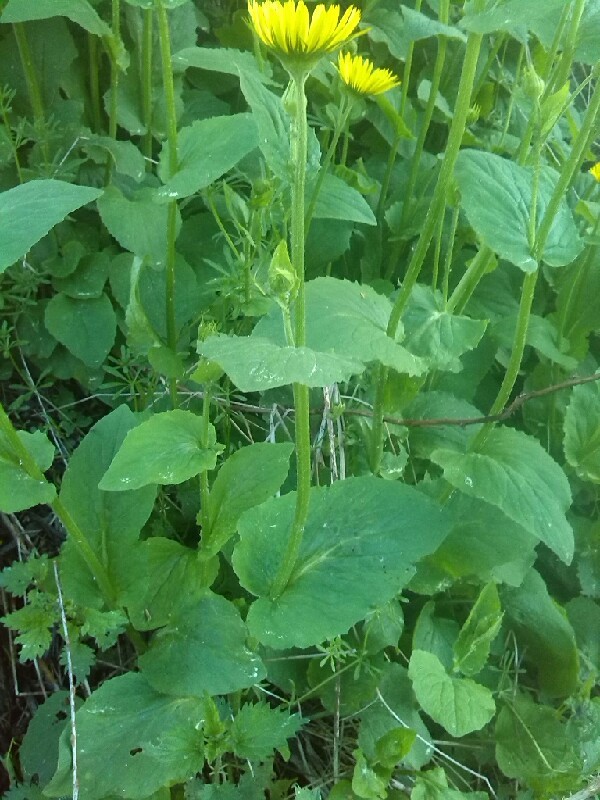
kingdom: Plantae
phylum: Tracheophyta
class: Magnoliopsida
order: Asterales
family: Asteraceae
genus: Doronicum
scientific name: Doronicum pardalianches
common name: Leopard's-bane
